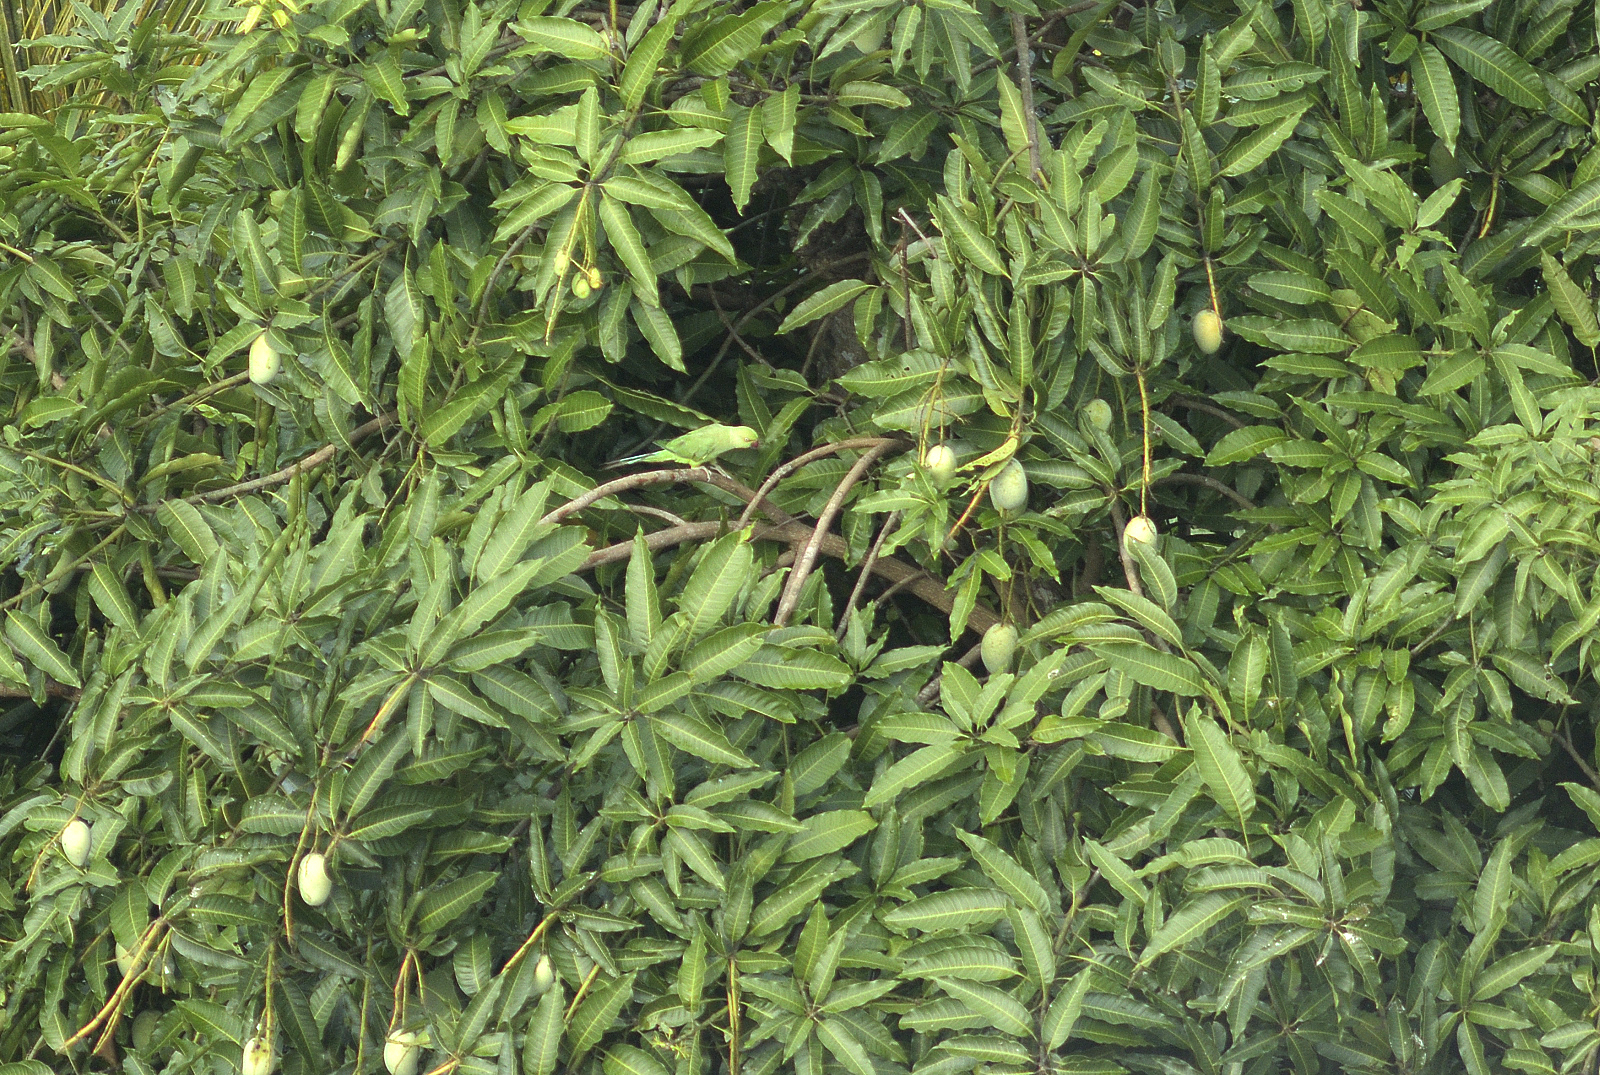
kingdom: Animalia
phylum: Chordata
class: Aves
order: Psittaciformes
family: Psittacidae
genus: Psittacula
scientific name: Psittacula krameri
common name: Rose-ringed parakeet
